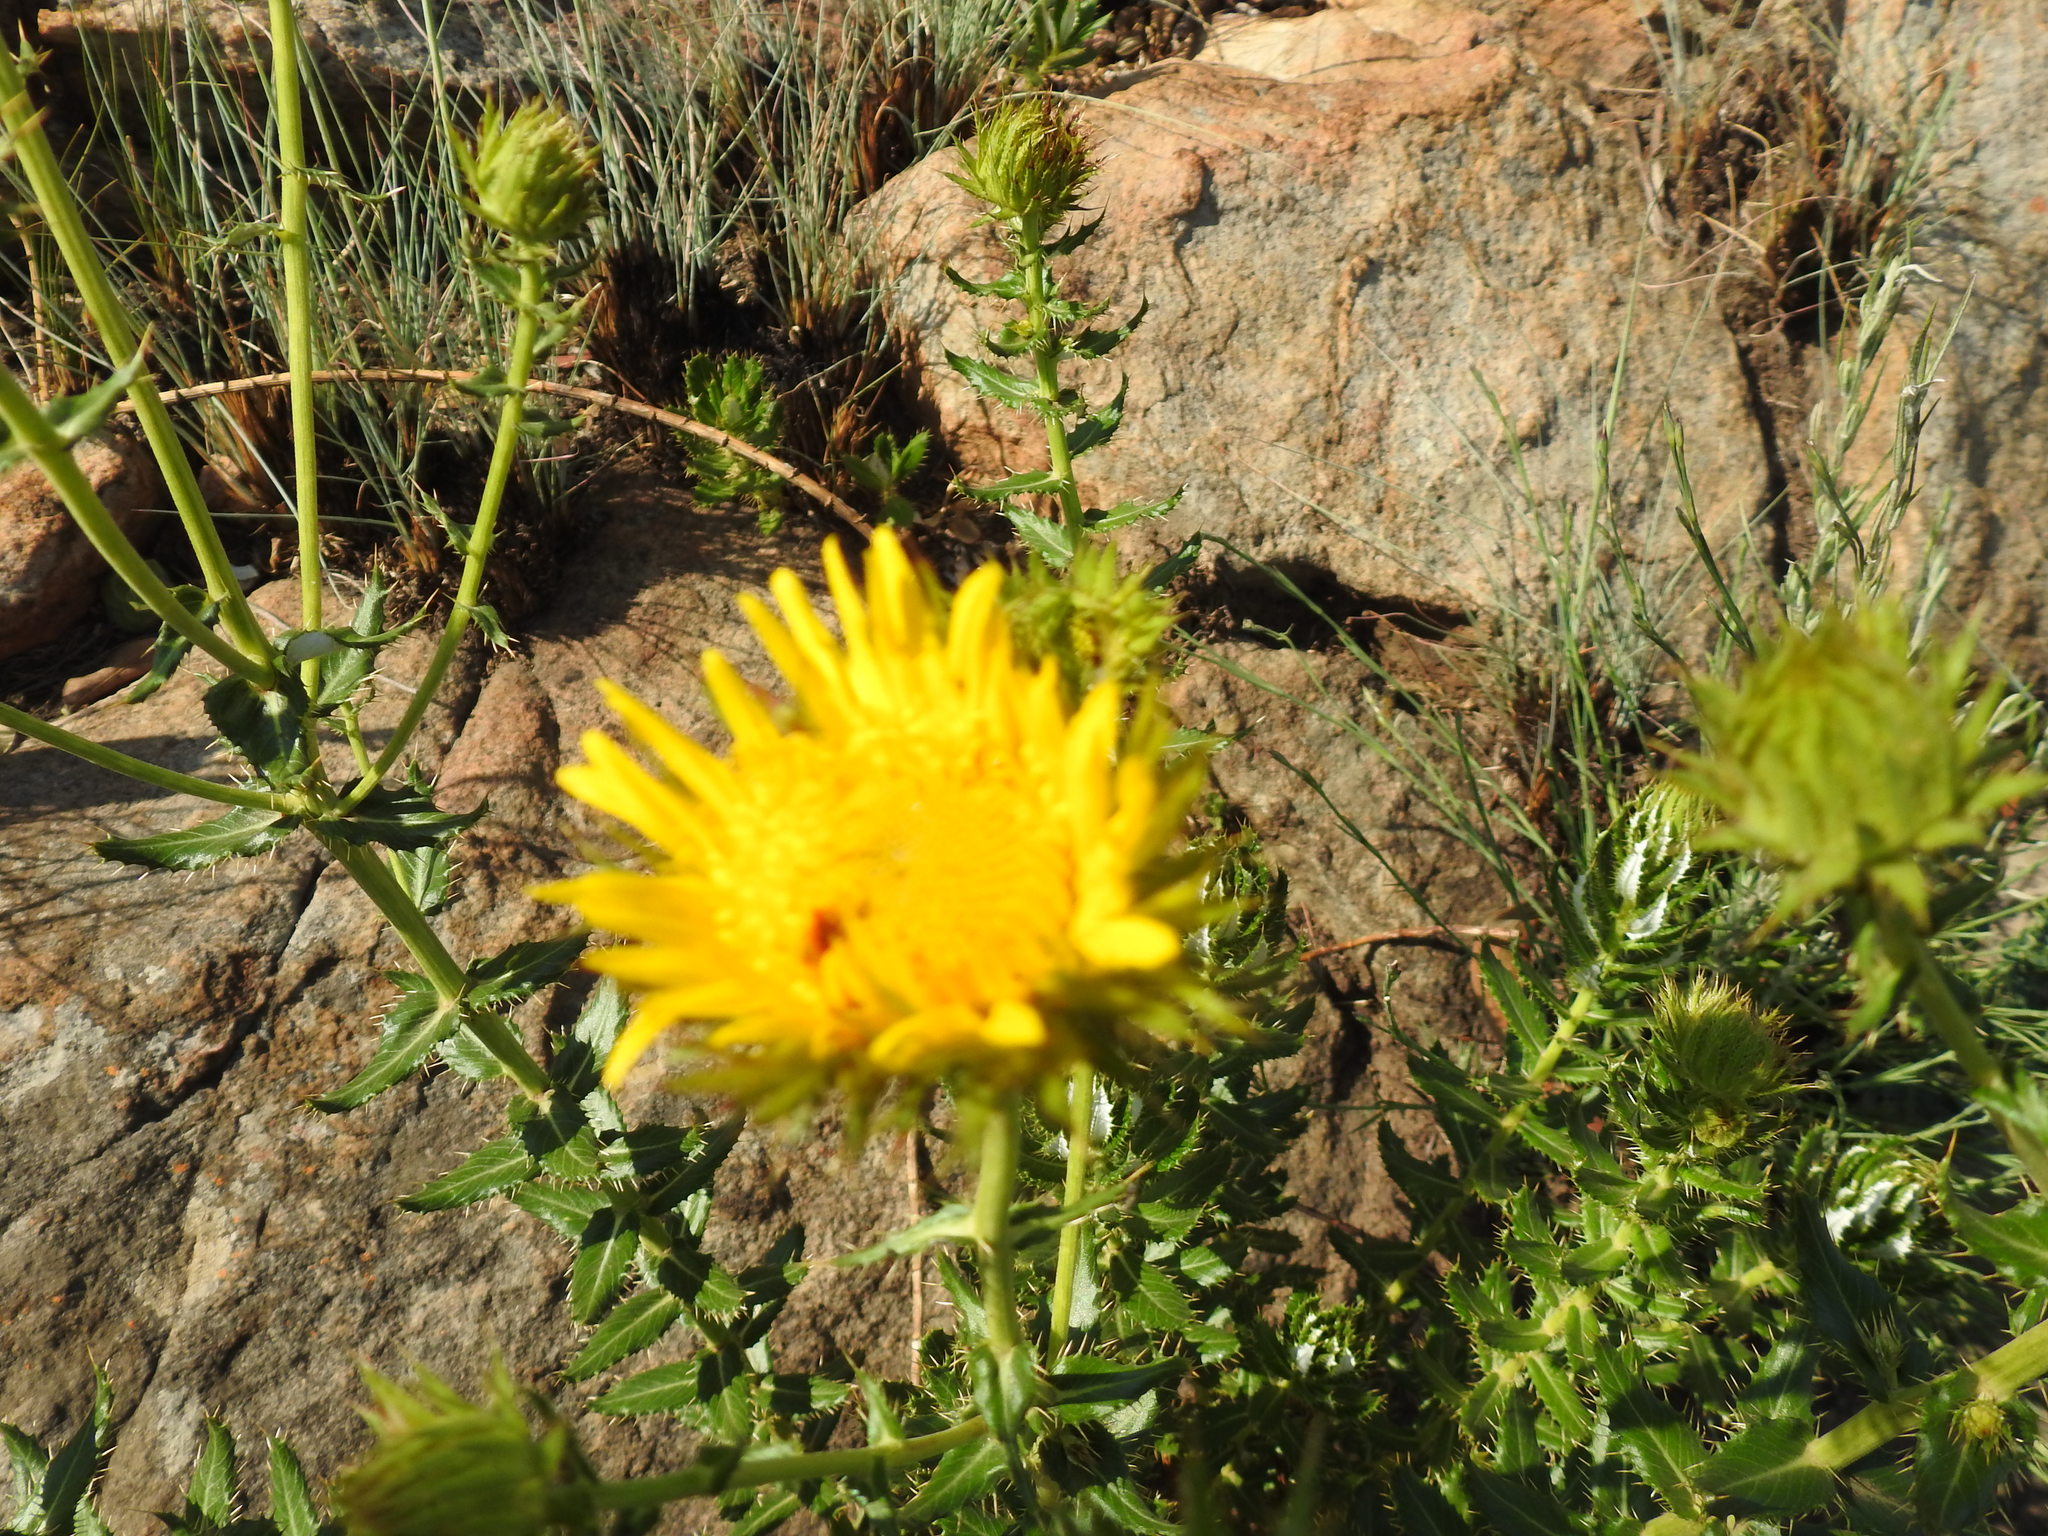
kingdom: Plantae
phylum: Tracheophyta
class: Magnoliopsida
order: Asterales
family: Asteraceae
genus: Berkheya
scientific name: Berkheya carlinopsis
